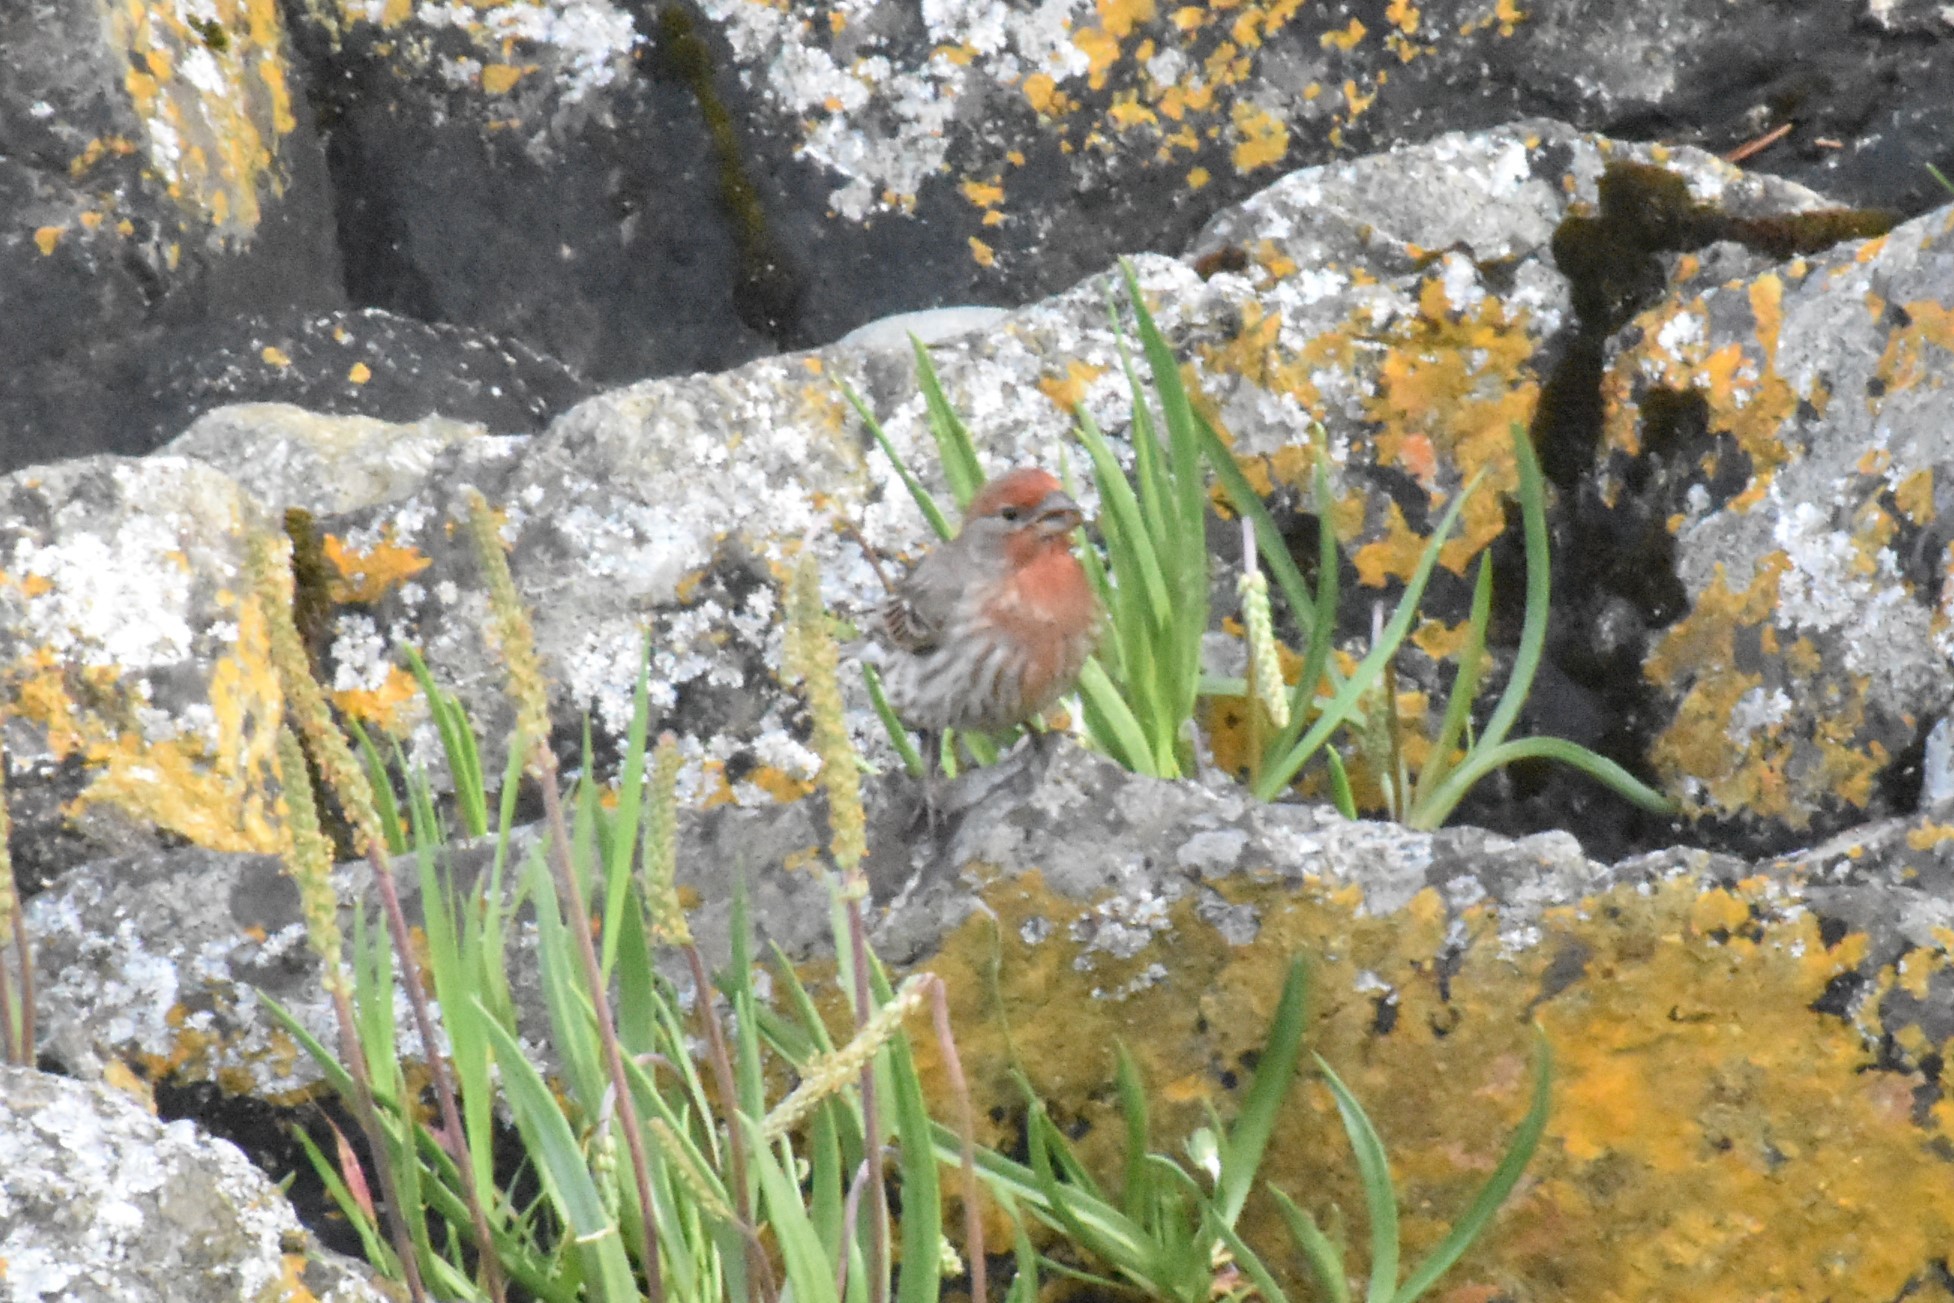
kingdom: Animalia
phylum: Chordata
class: Aves
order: Passeriformes
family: Fringillidae
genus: Haemorhous
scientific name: Haemorhous mexicanus
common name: House finch
